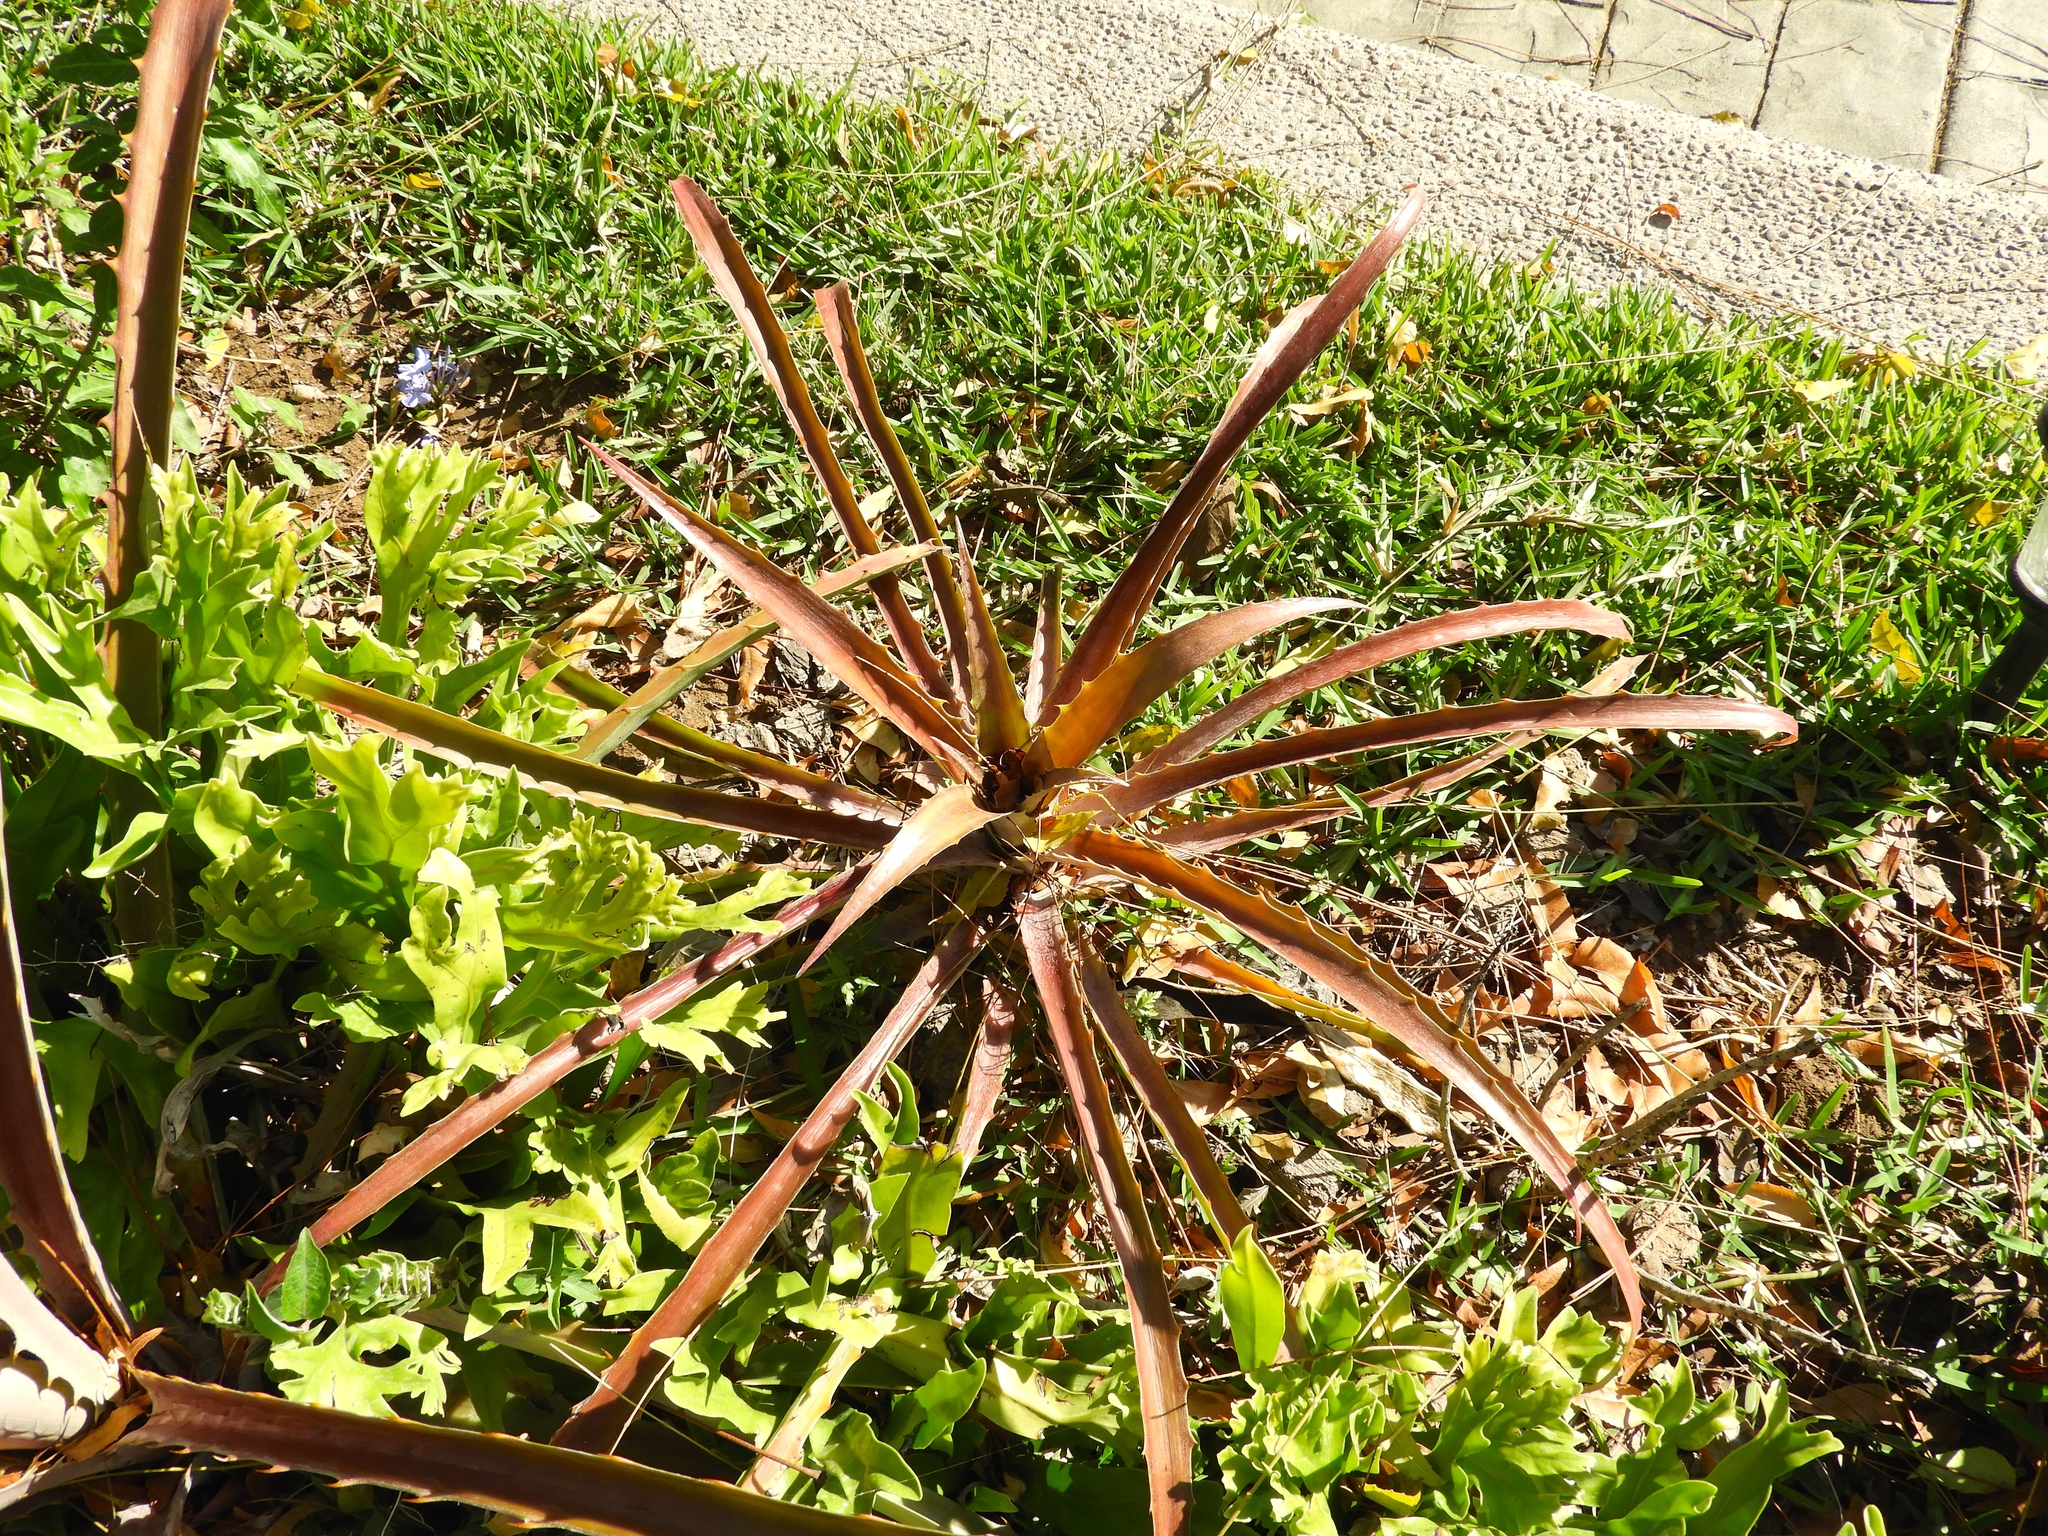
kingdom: Plantae
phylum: Tracheophyta
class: Liliopsida
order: Poales
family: Bromeliaceae
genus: Bromelia
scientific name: Bromelia pinguin
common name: Pinguin
